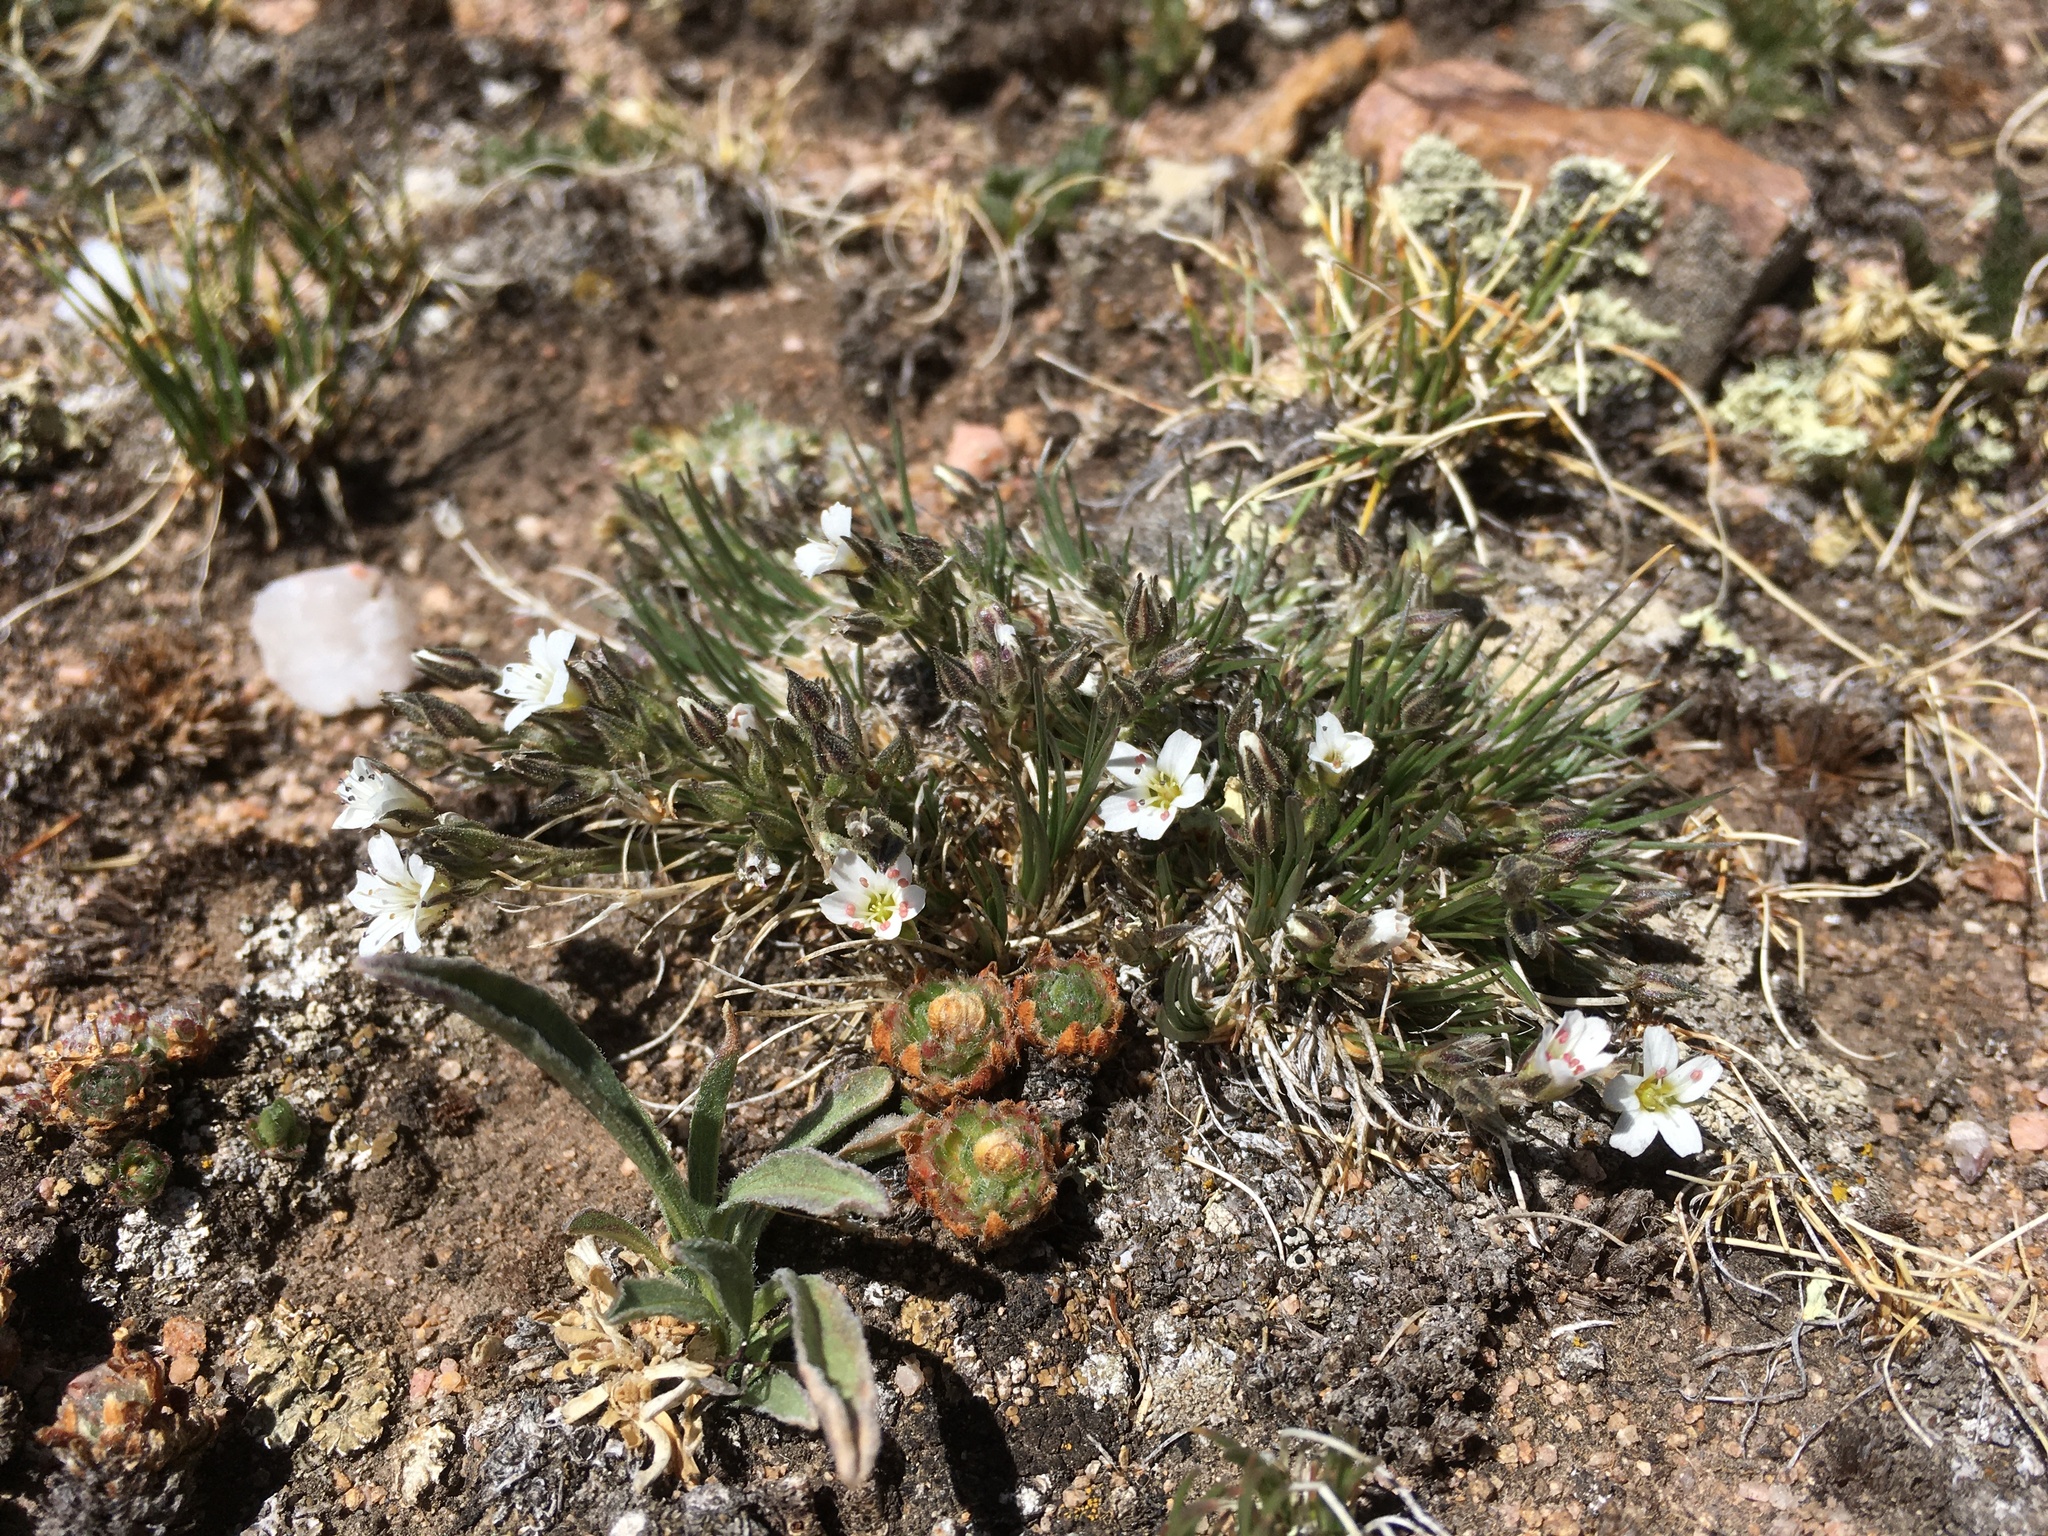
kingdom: Plantae
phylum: Tracheophyta
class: Magnoliopsida
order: Caryophyllales
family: Caryophyllaceae
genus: Eremogone
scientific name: Eremogone fendleri
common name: Fendler's sandwort
